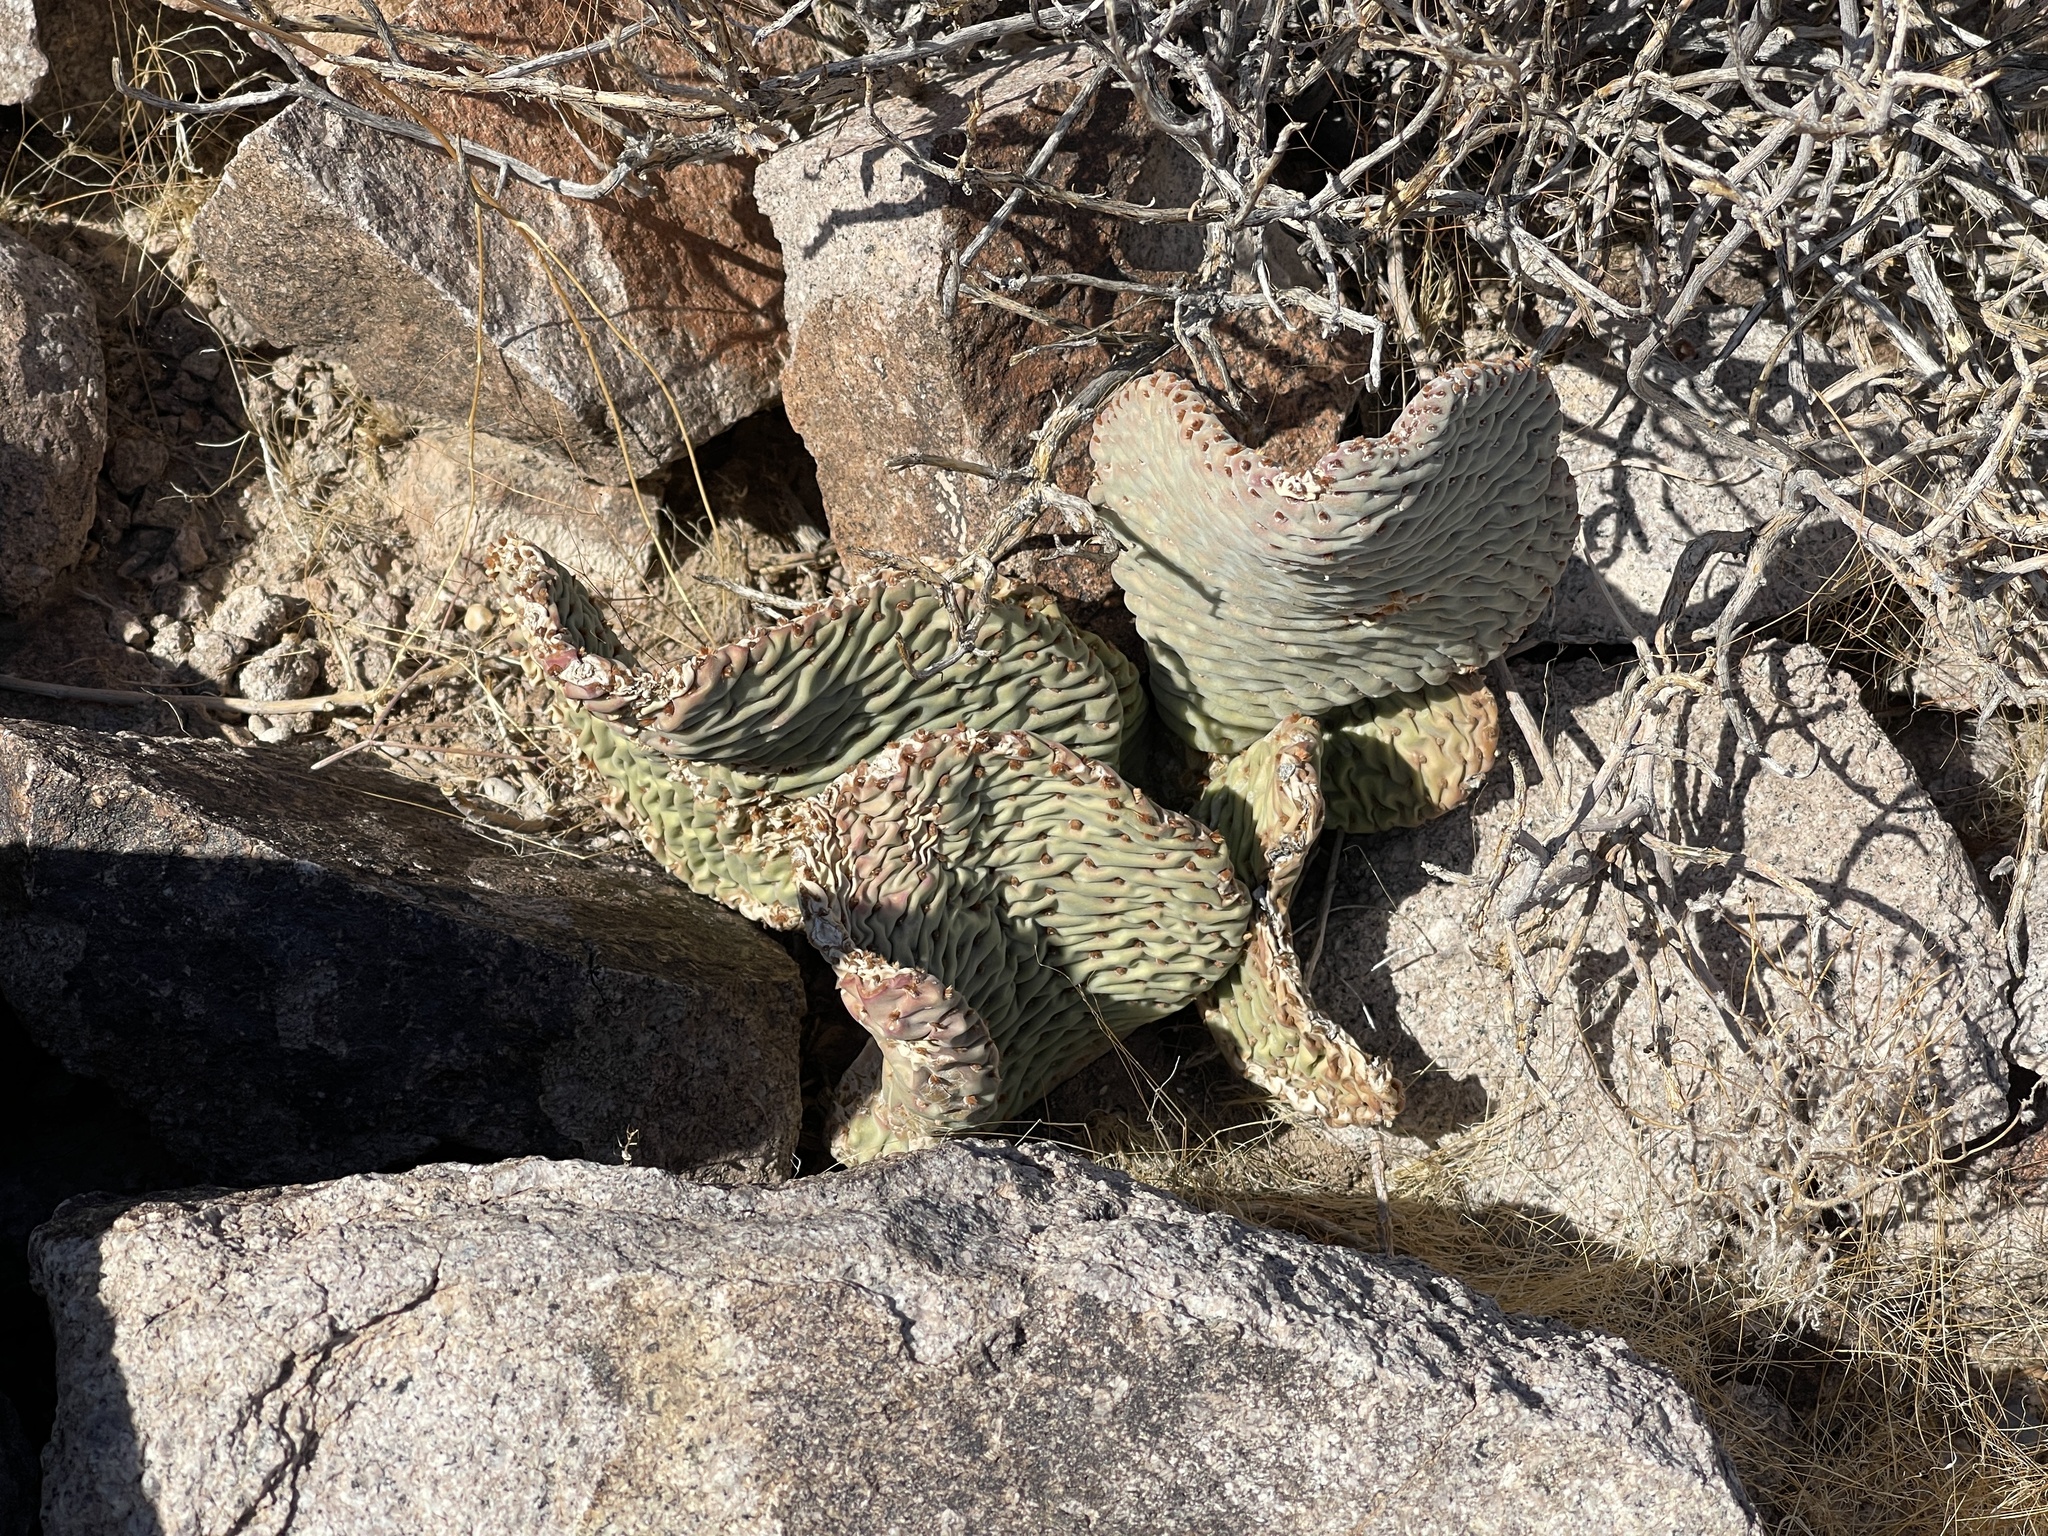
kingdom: Plantae
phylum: Tracheophyta
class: Magnoliopsida
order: Caryophyllales
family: Cactaceae
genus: Opuntia
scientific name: Opuntia basilaris
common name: Beavertail prickly-pear
